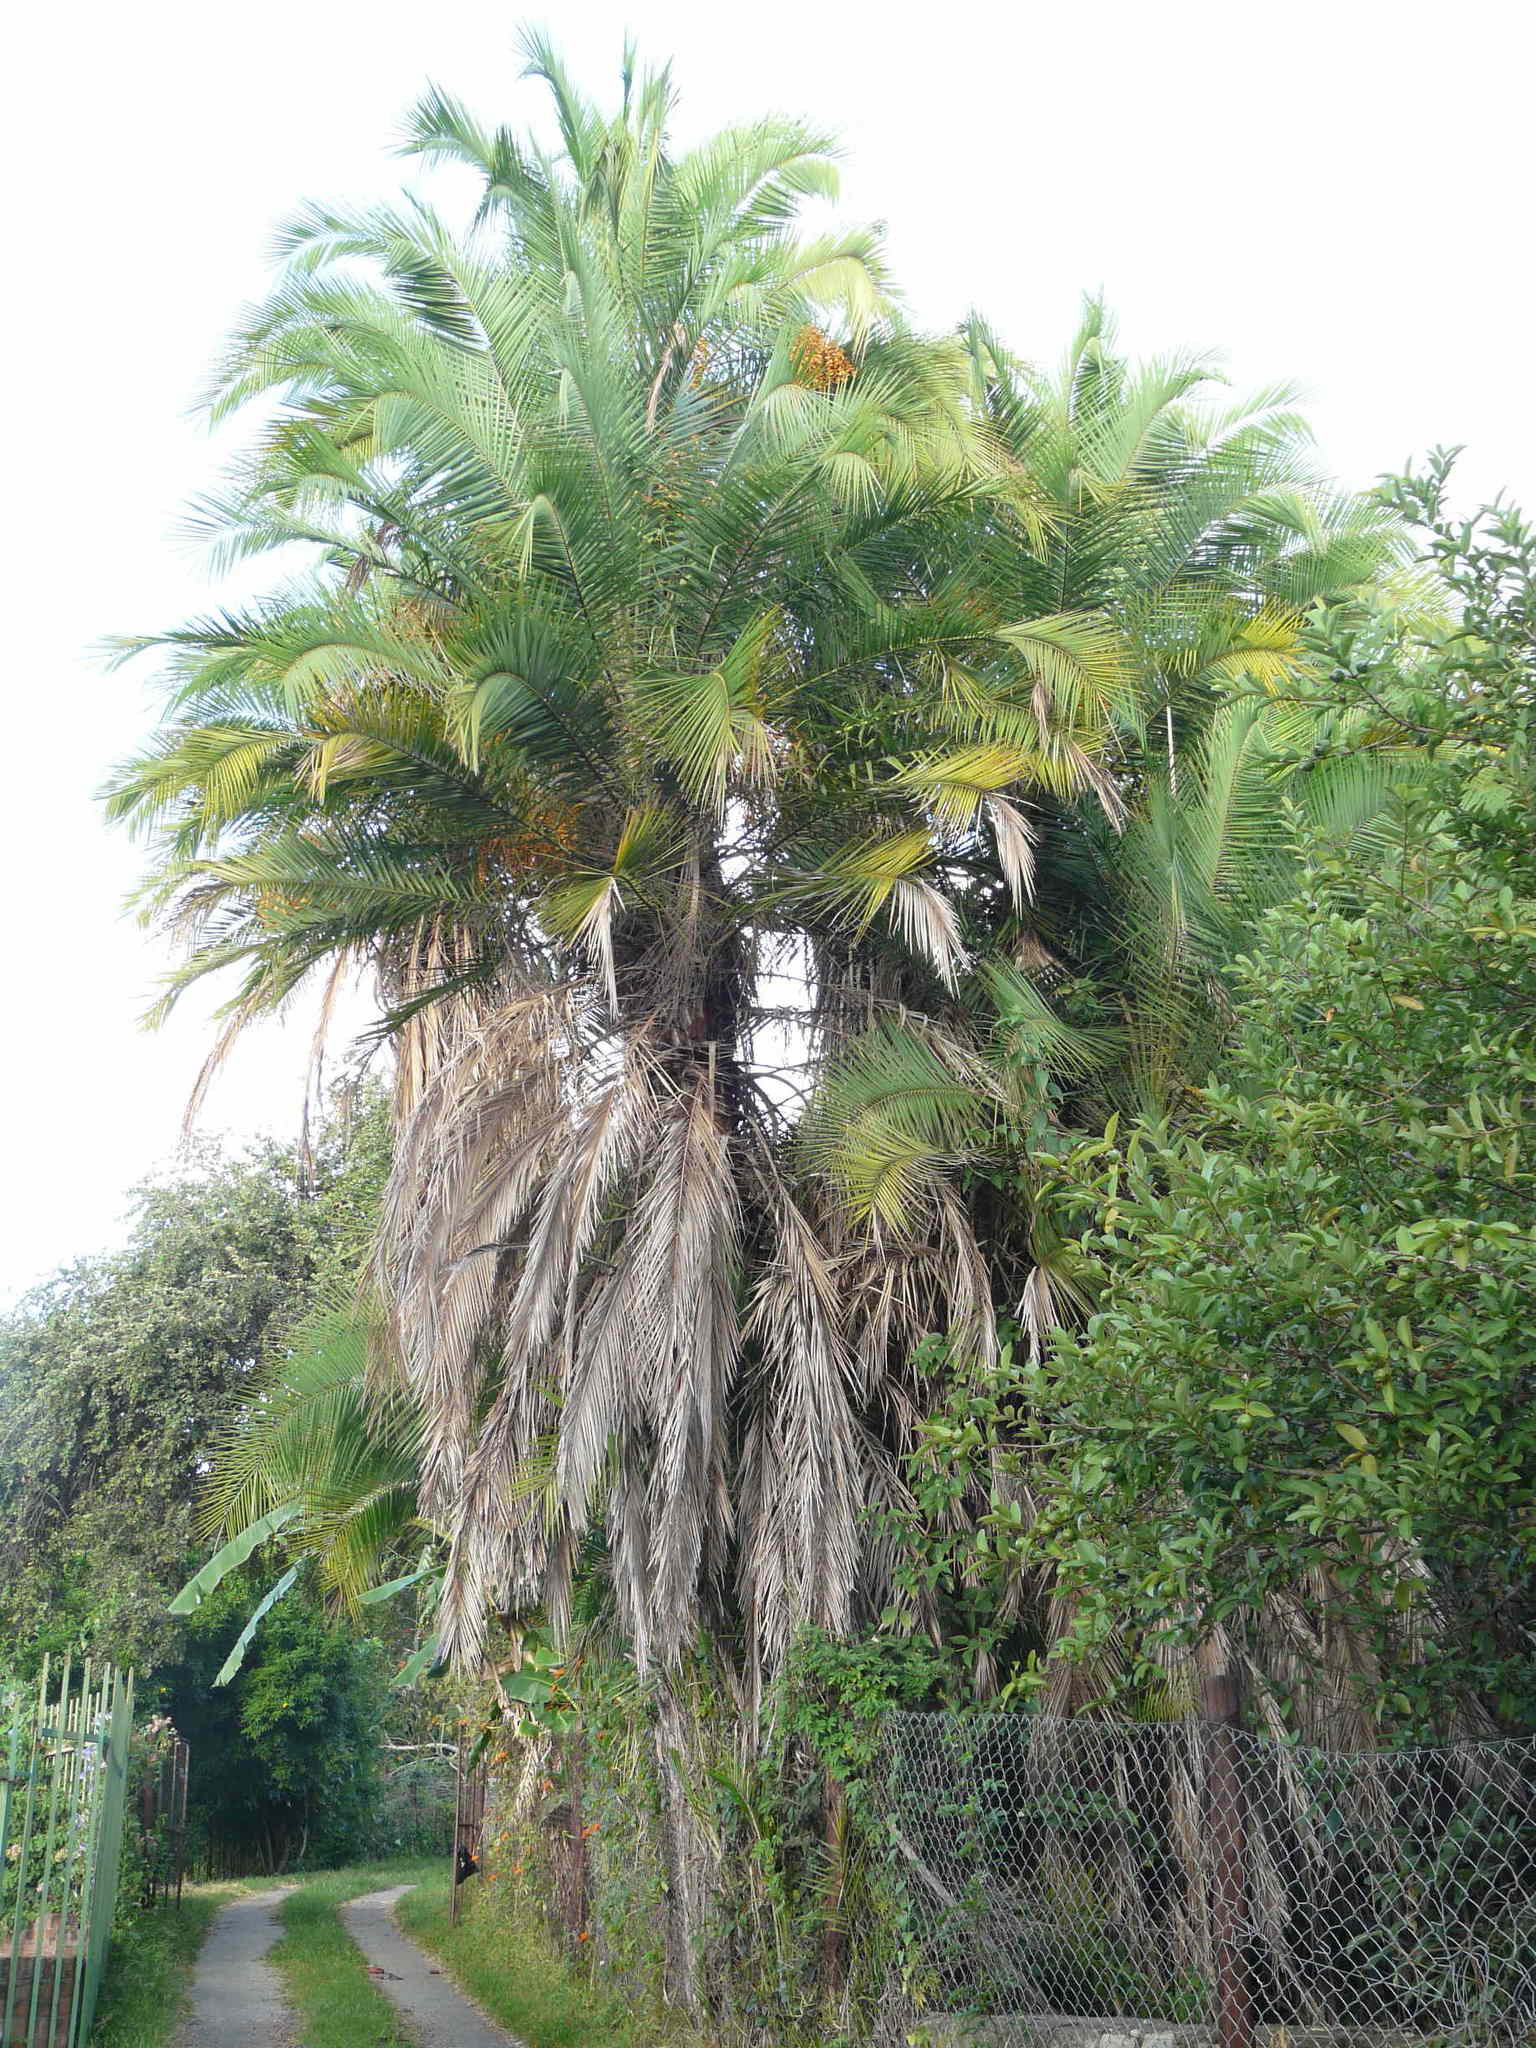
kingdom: Plantae
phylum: Tracheophyta
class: Liliopsida
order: Arecales
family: Arecaceae
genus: Phoenix
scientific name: Phoenix reclinata
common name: Senegal date palm
